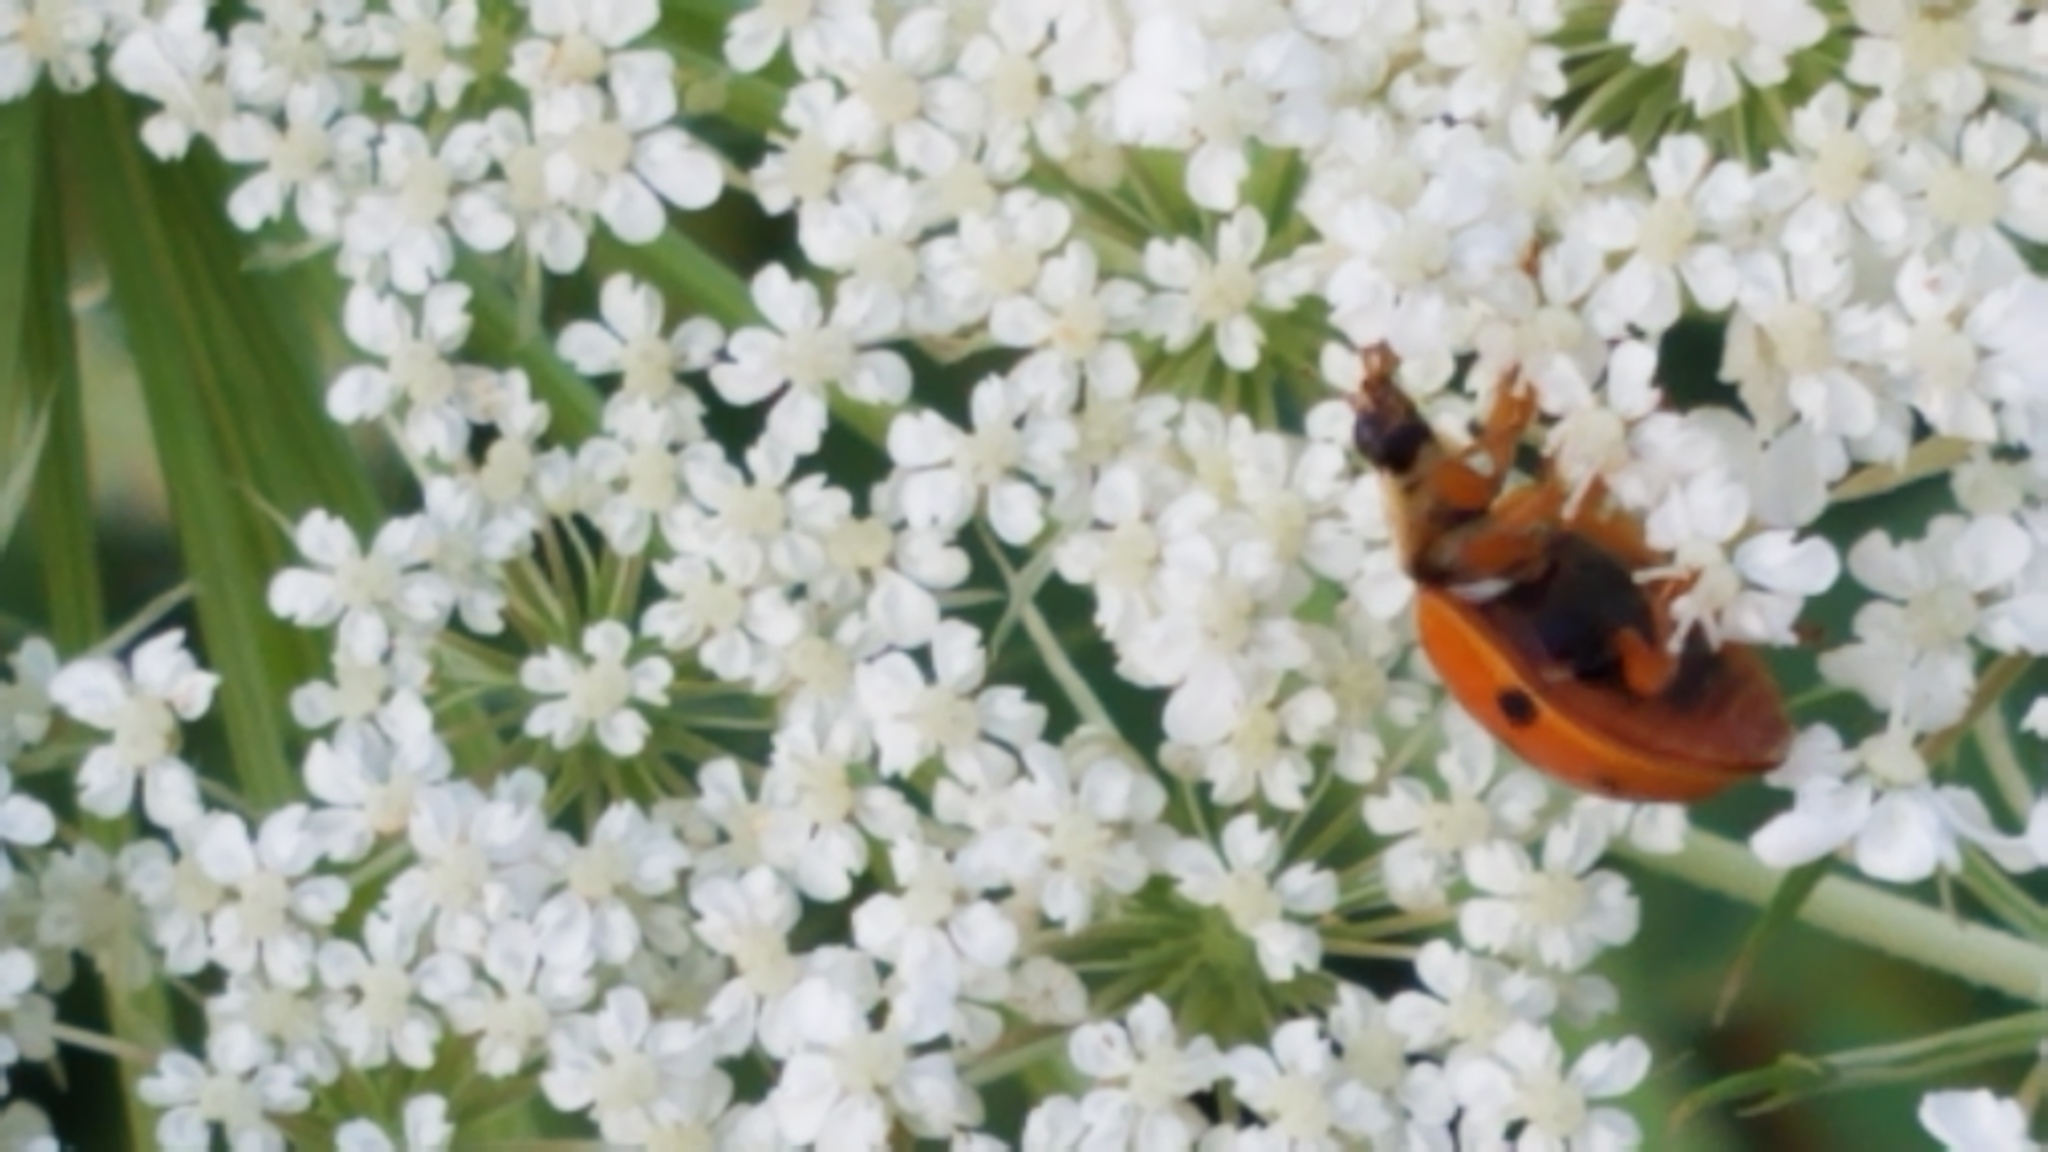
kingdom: Animalia
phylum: Arthropoda
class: Insecta
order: Coleoptera
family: Coccinellidae
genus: Harmonia
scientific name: Harmonia axyridis
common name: Harlequin ladybird
